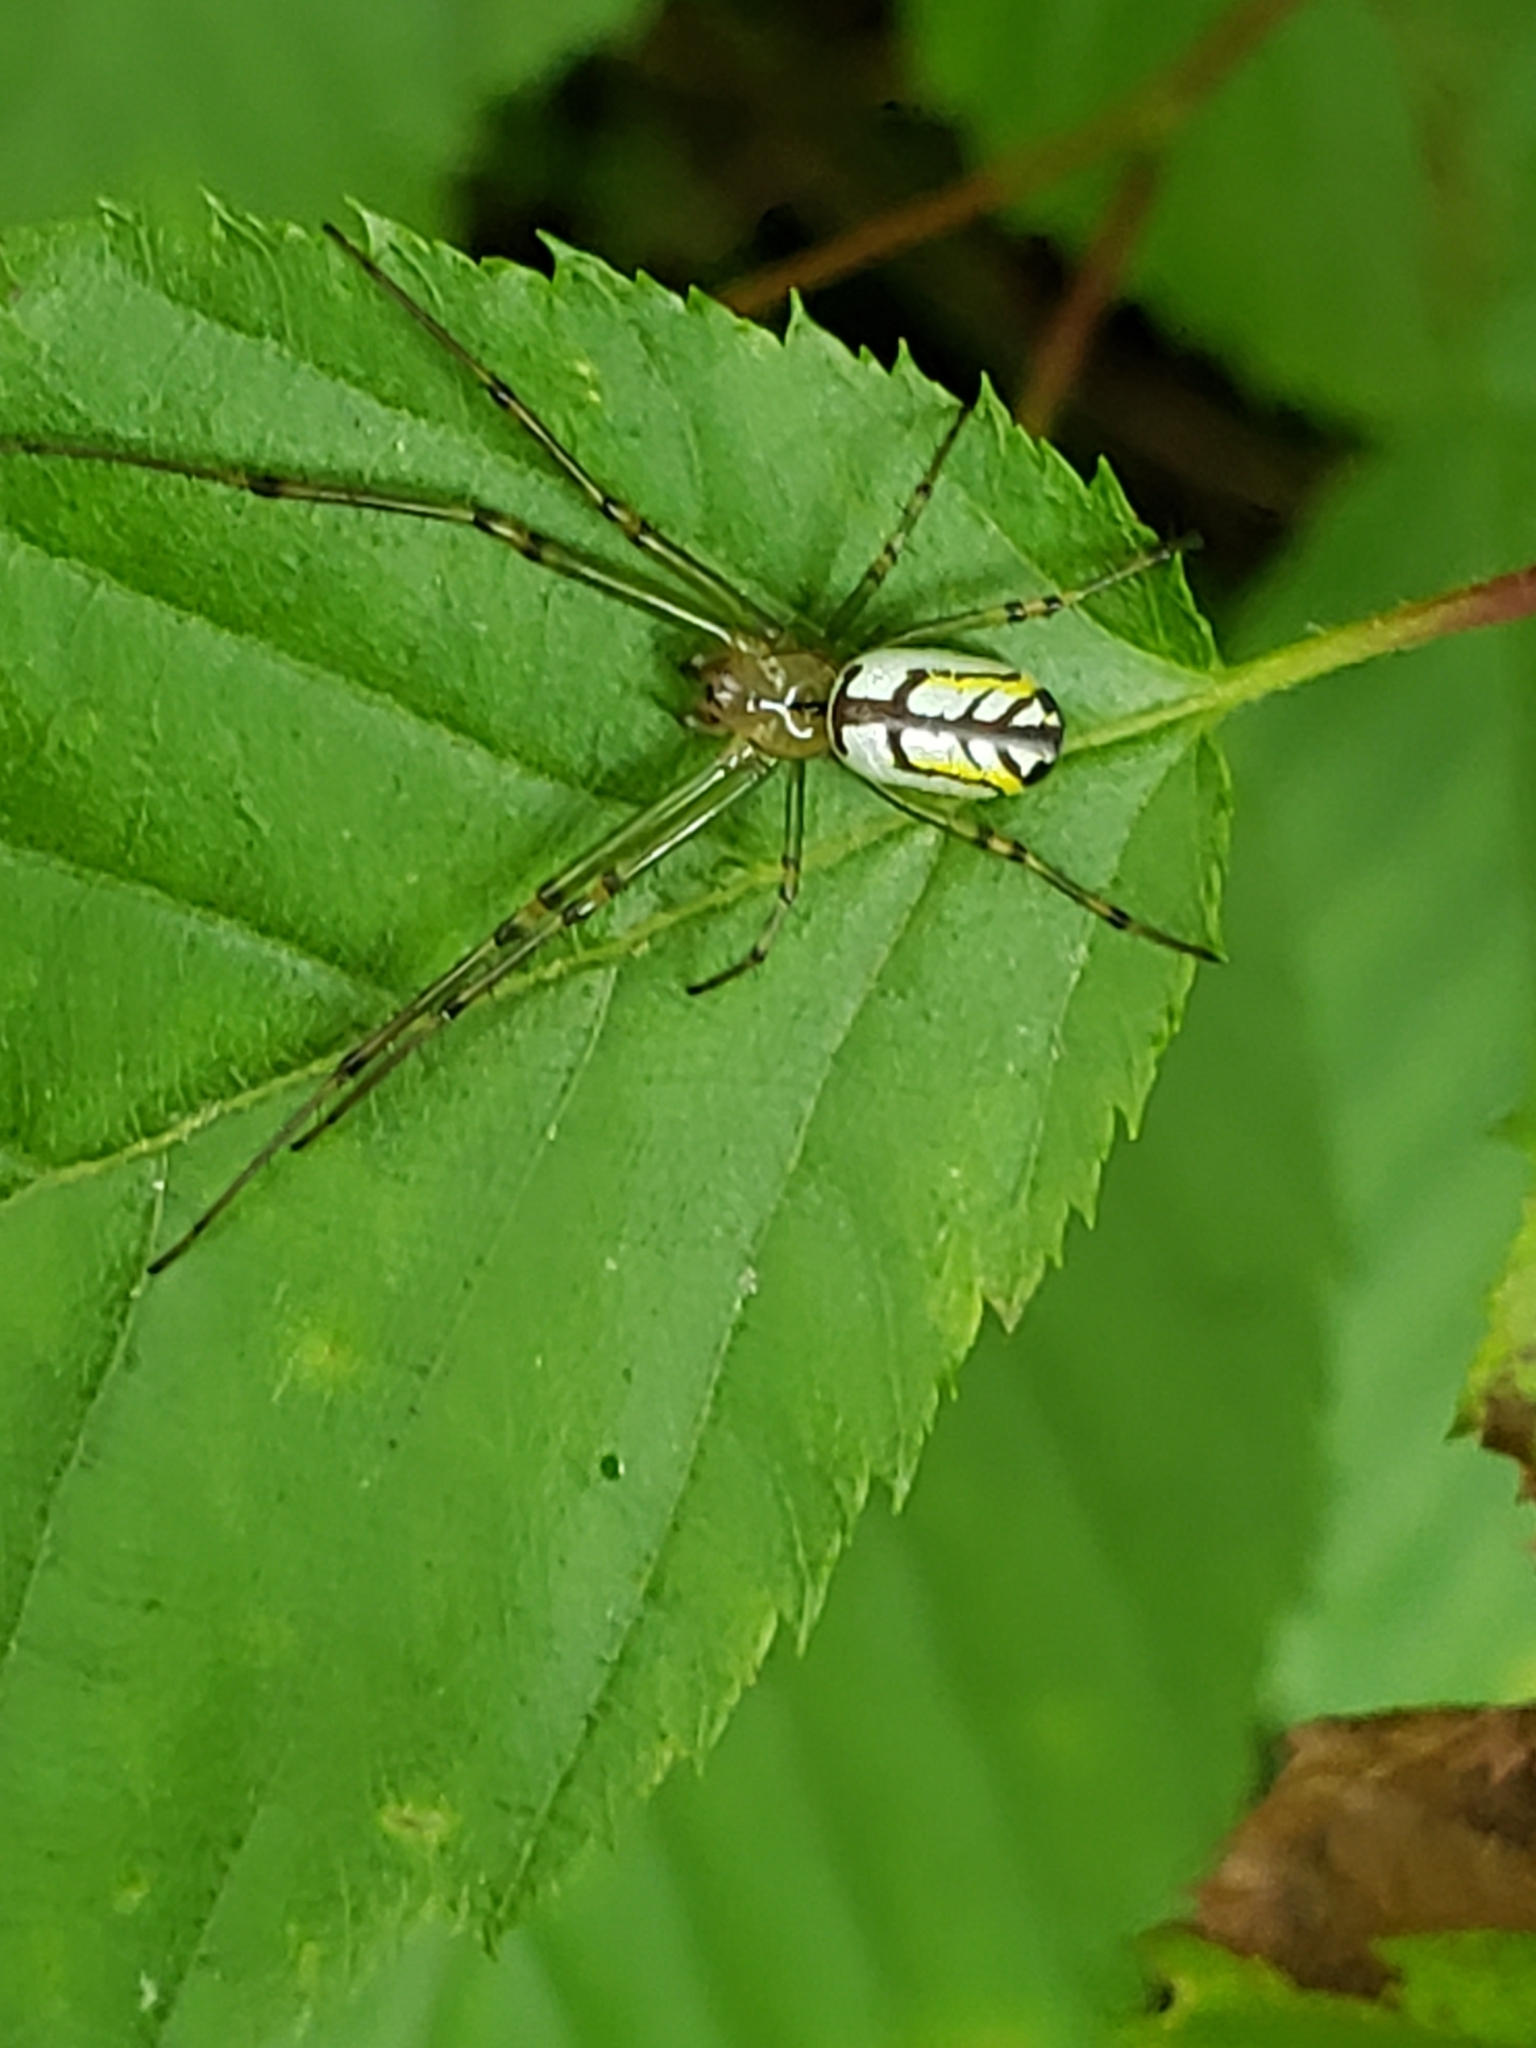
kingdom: Animalia
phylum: Arthropoda
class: Arachnida
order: Araneae
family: Tetragnathidae
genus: Leucauge
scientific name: Leucauge venusta
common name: Longjawed orb weavers
